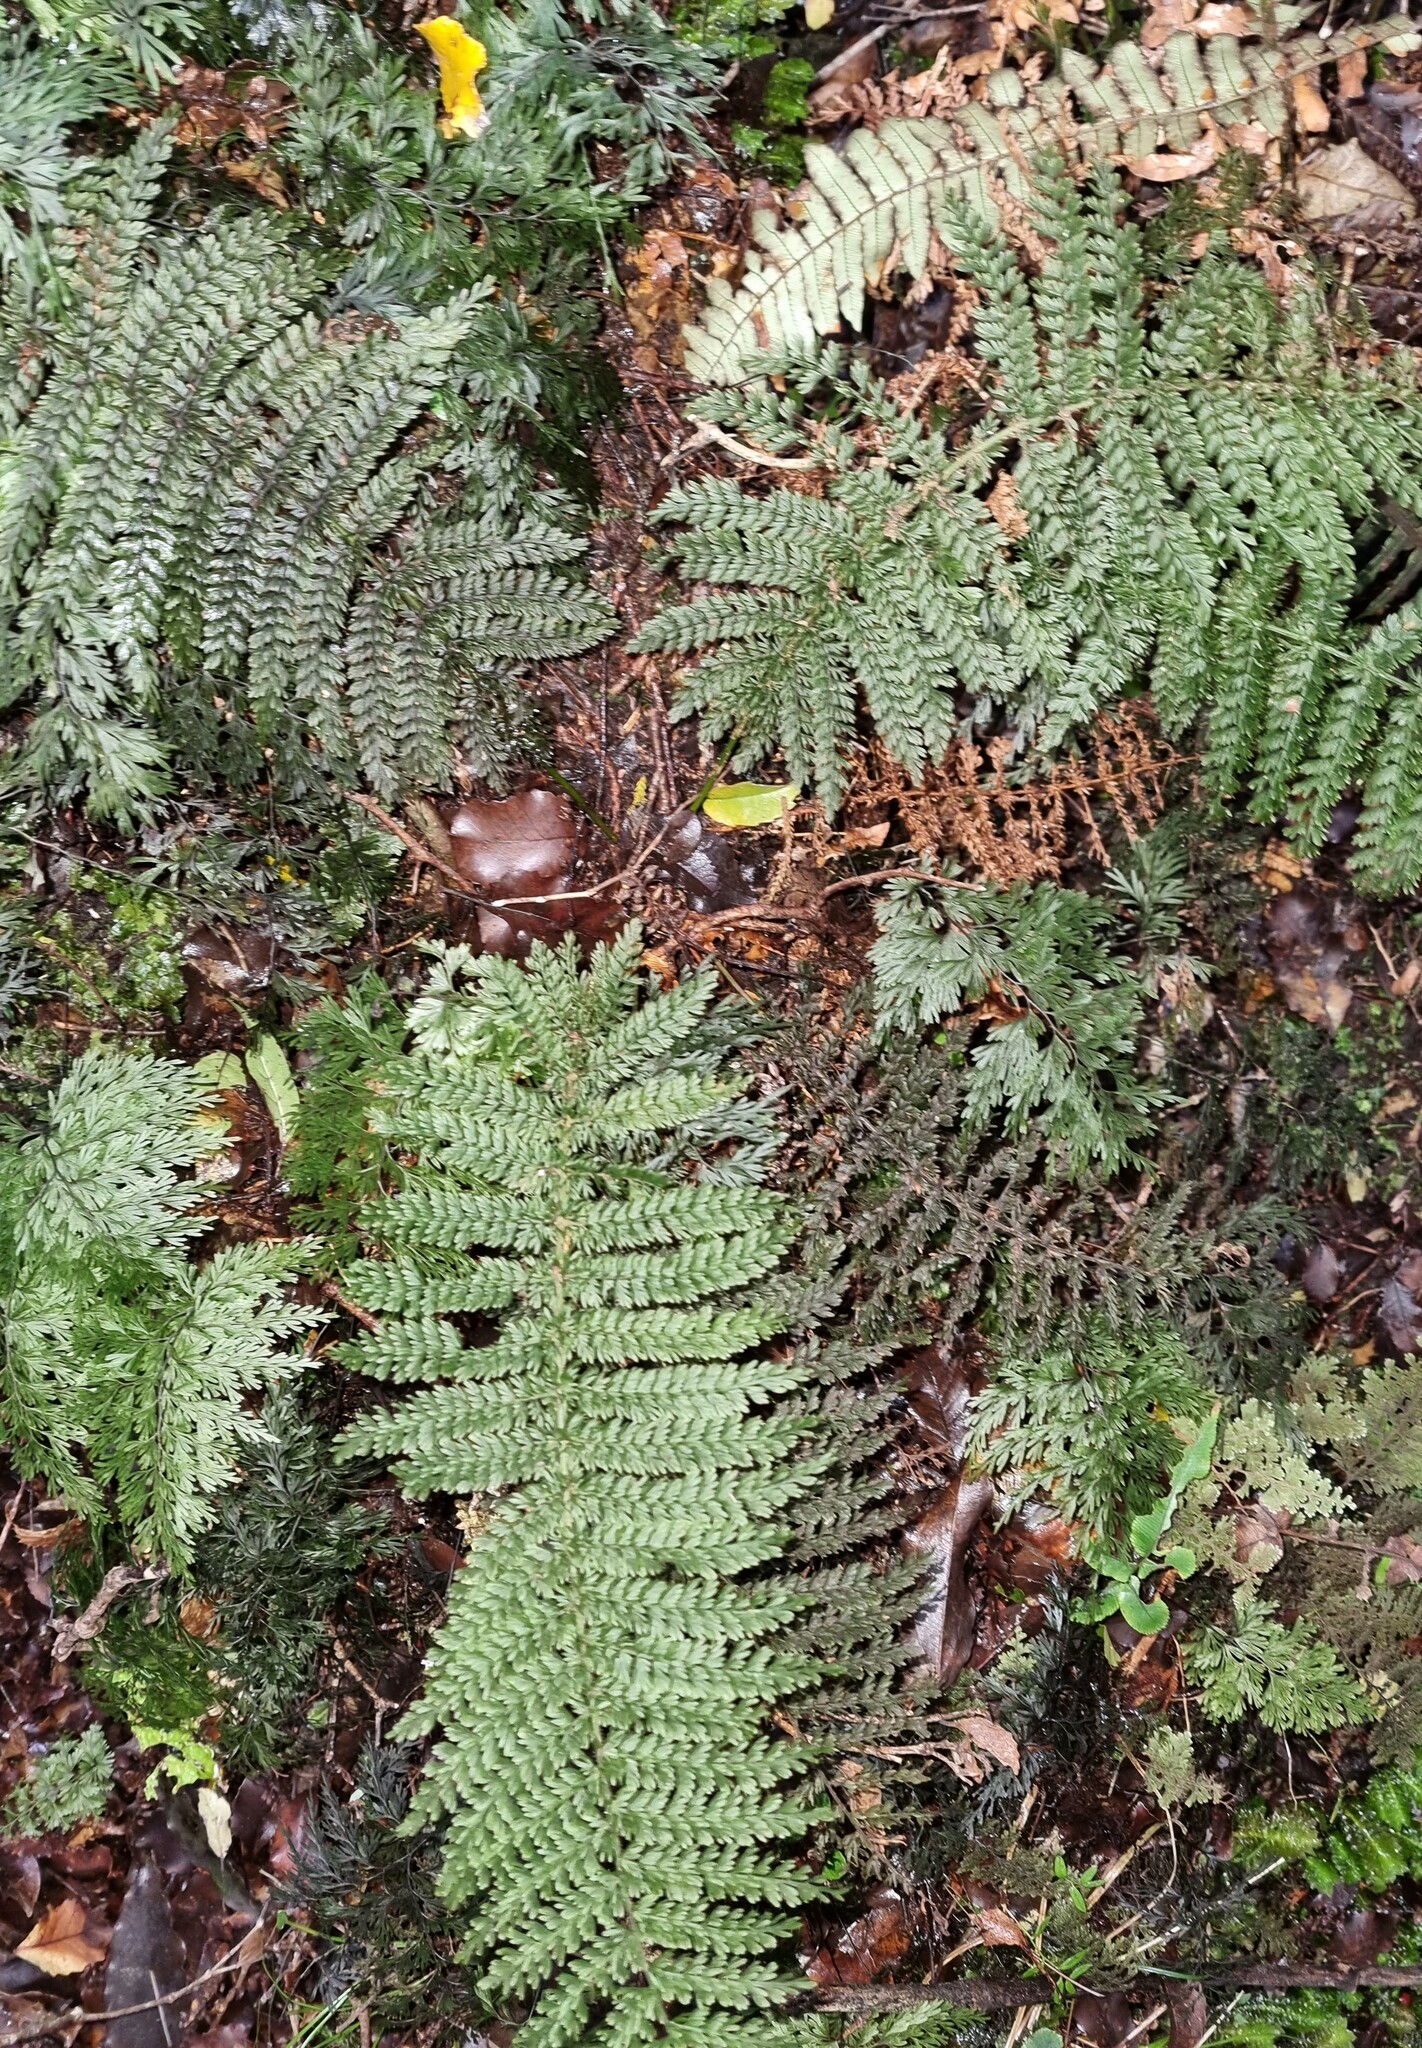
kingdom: Plantae
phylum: Tracheophyta
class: Polypodiopsida
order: Osmundales
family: Osmundaceae
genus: Leptopteris
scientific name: Leptopteris superba
